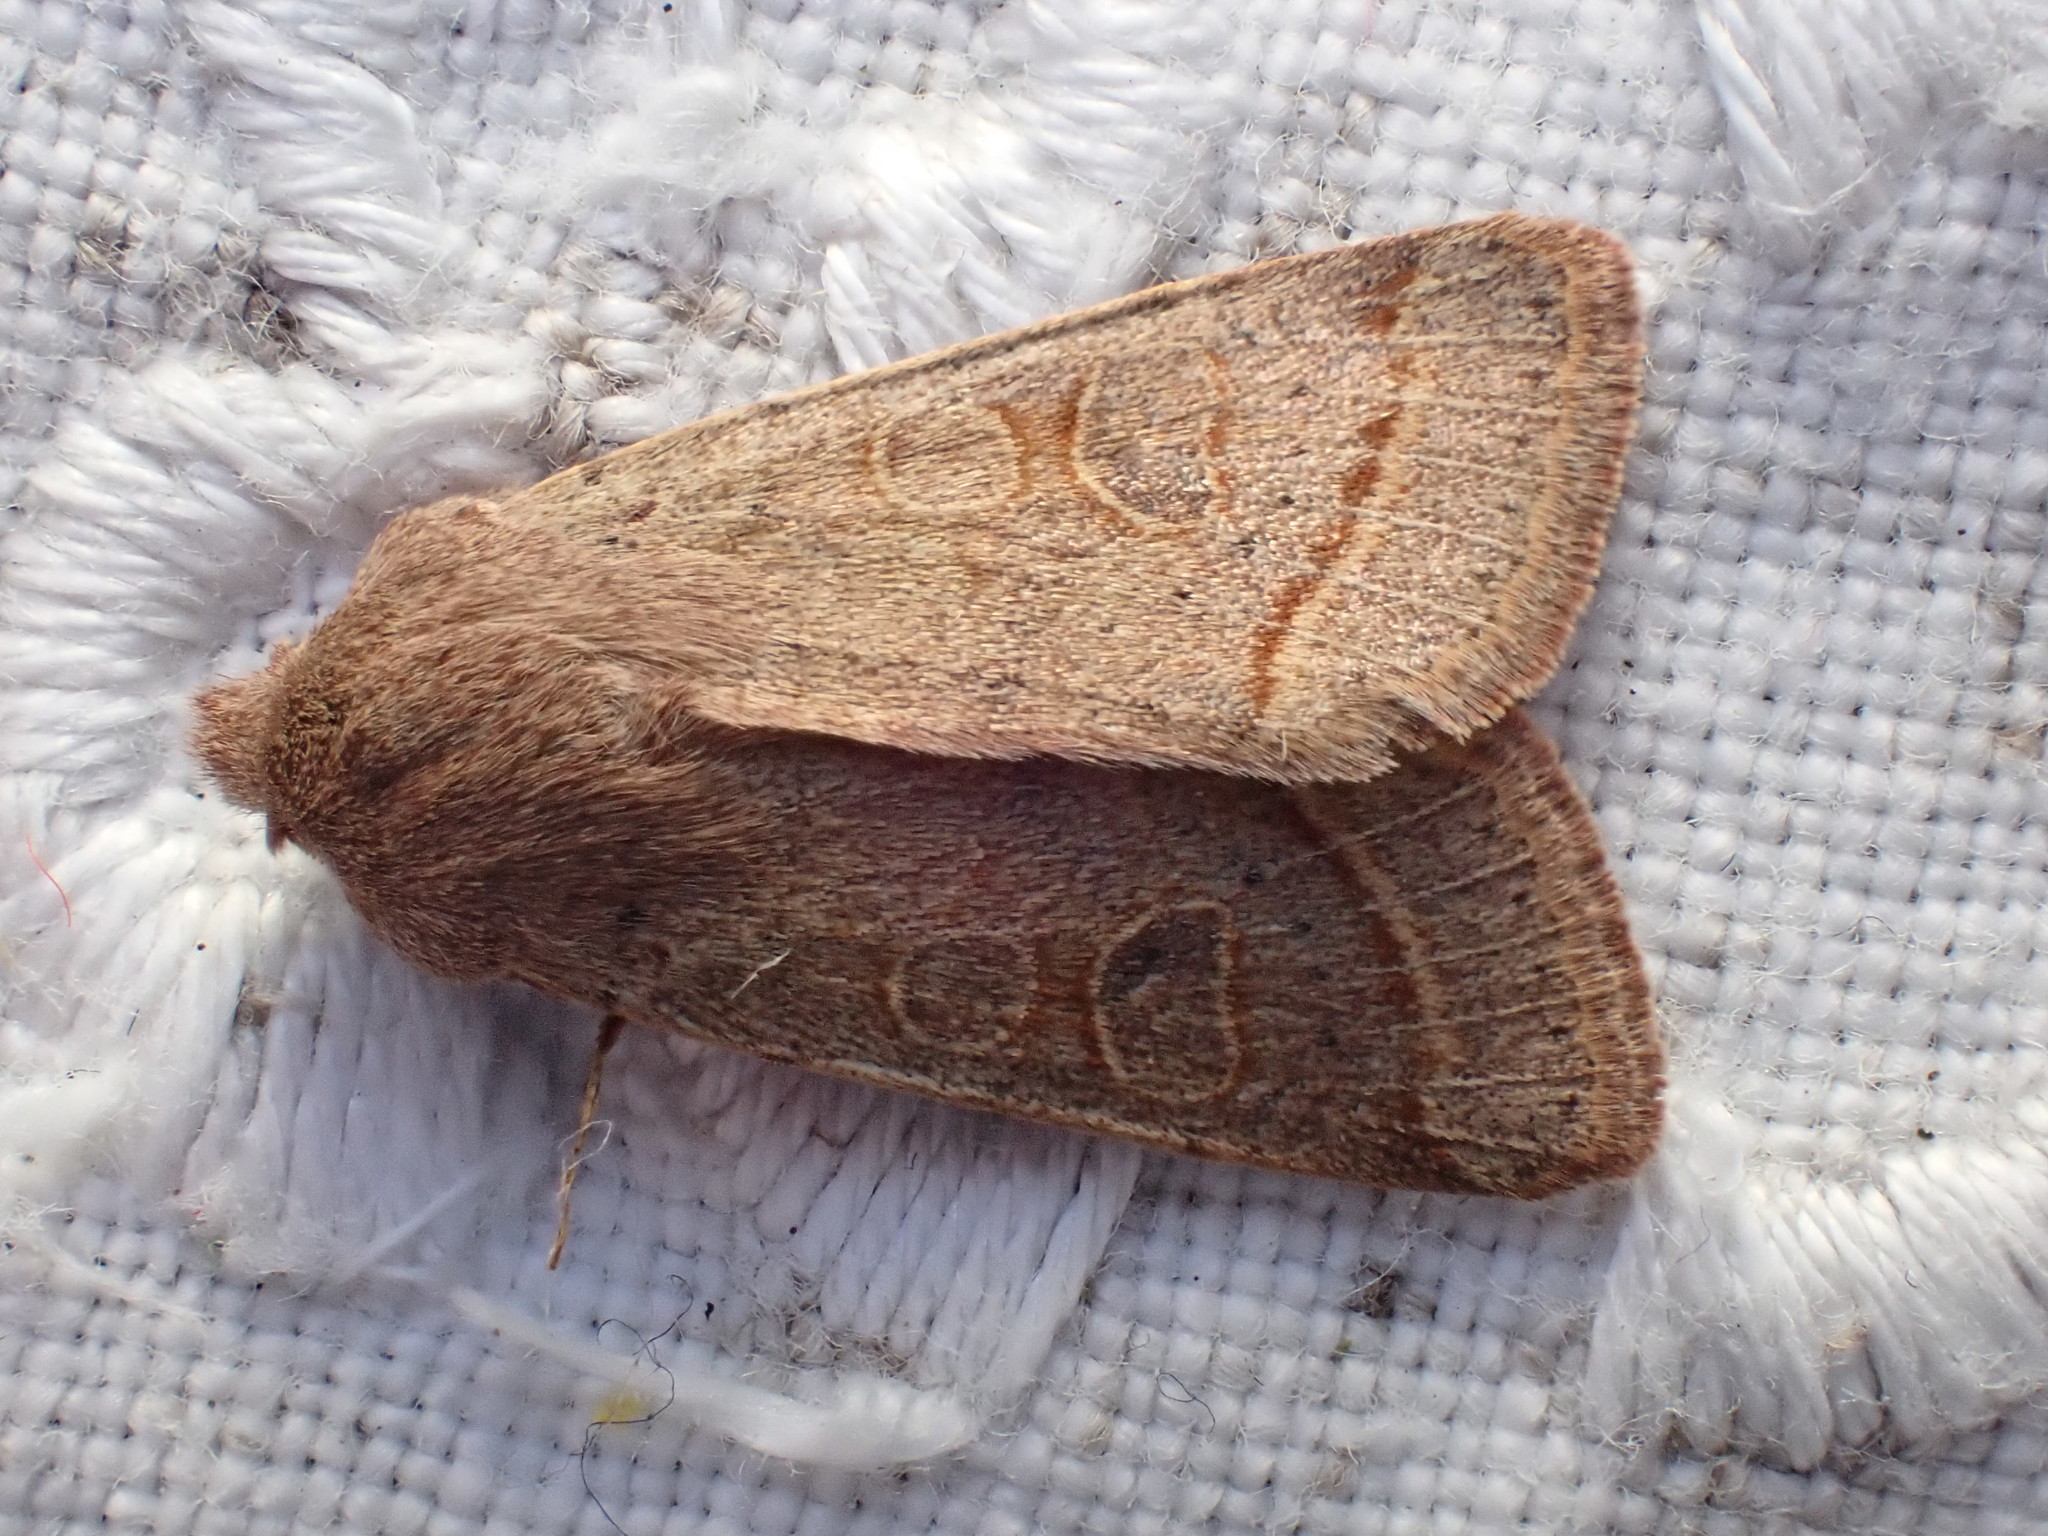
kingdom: Animalia
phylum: Arthropoda
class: Insecta
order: Lepidoptera
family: Noctuidae
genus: Orthosia
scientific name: Orthosia cerasi
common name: Common quaker
